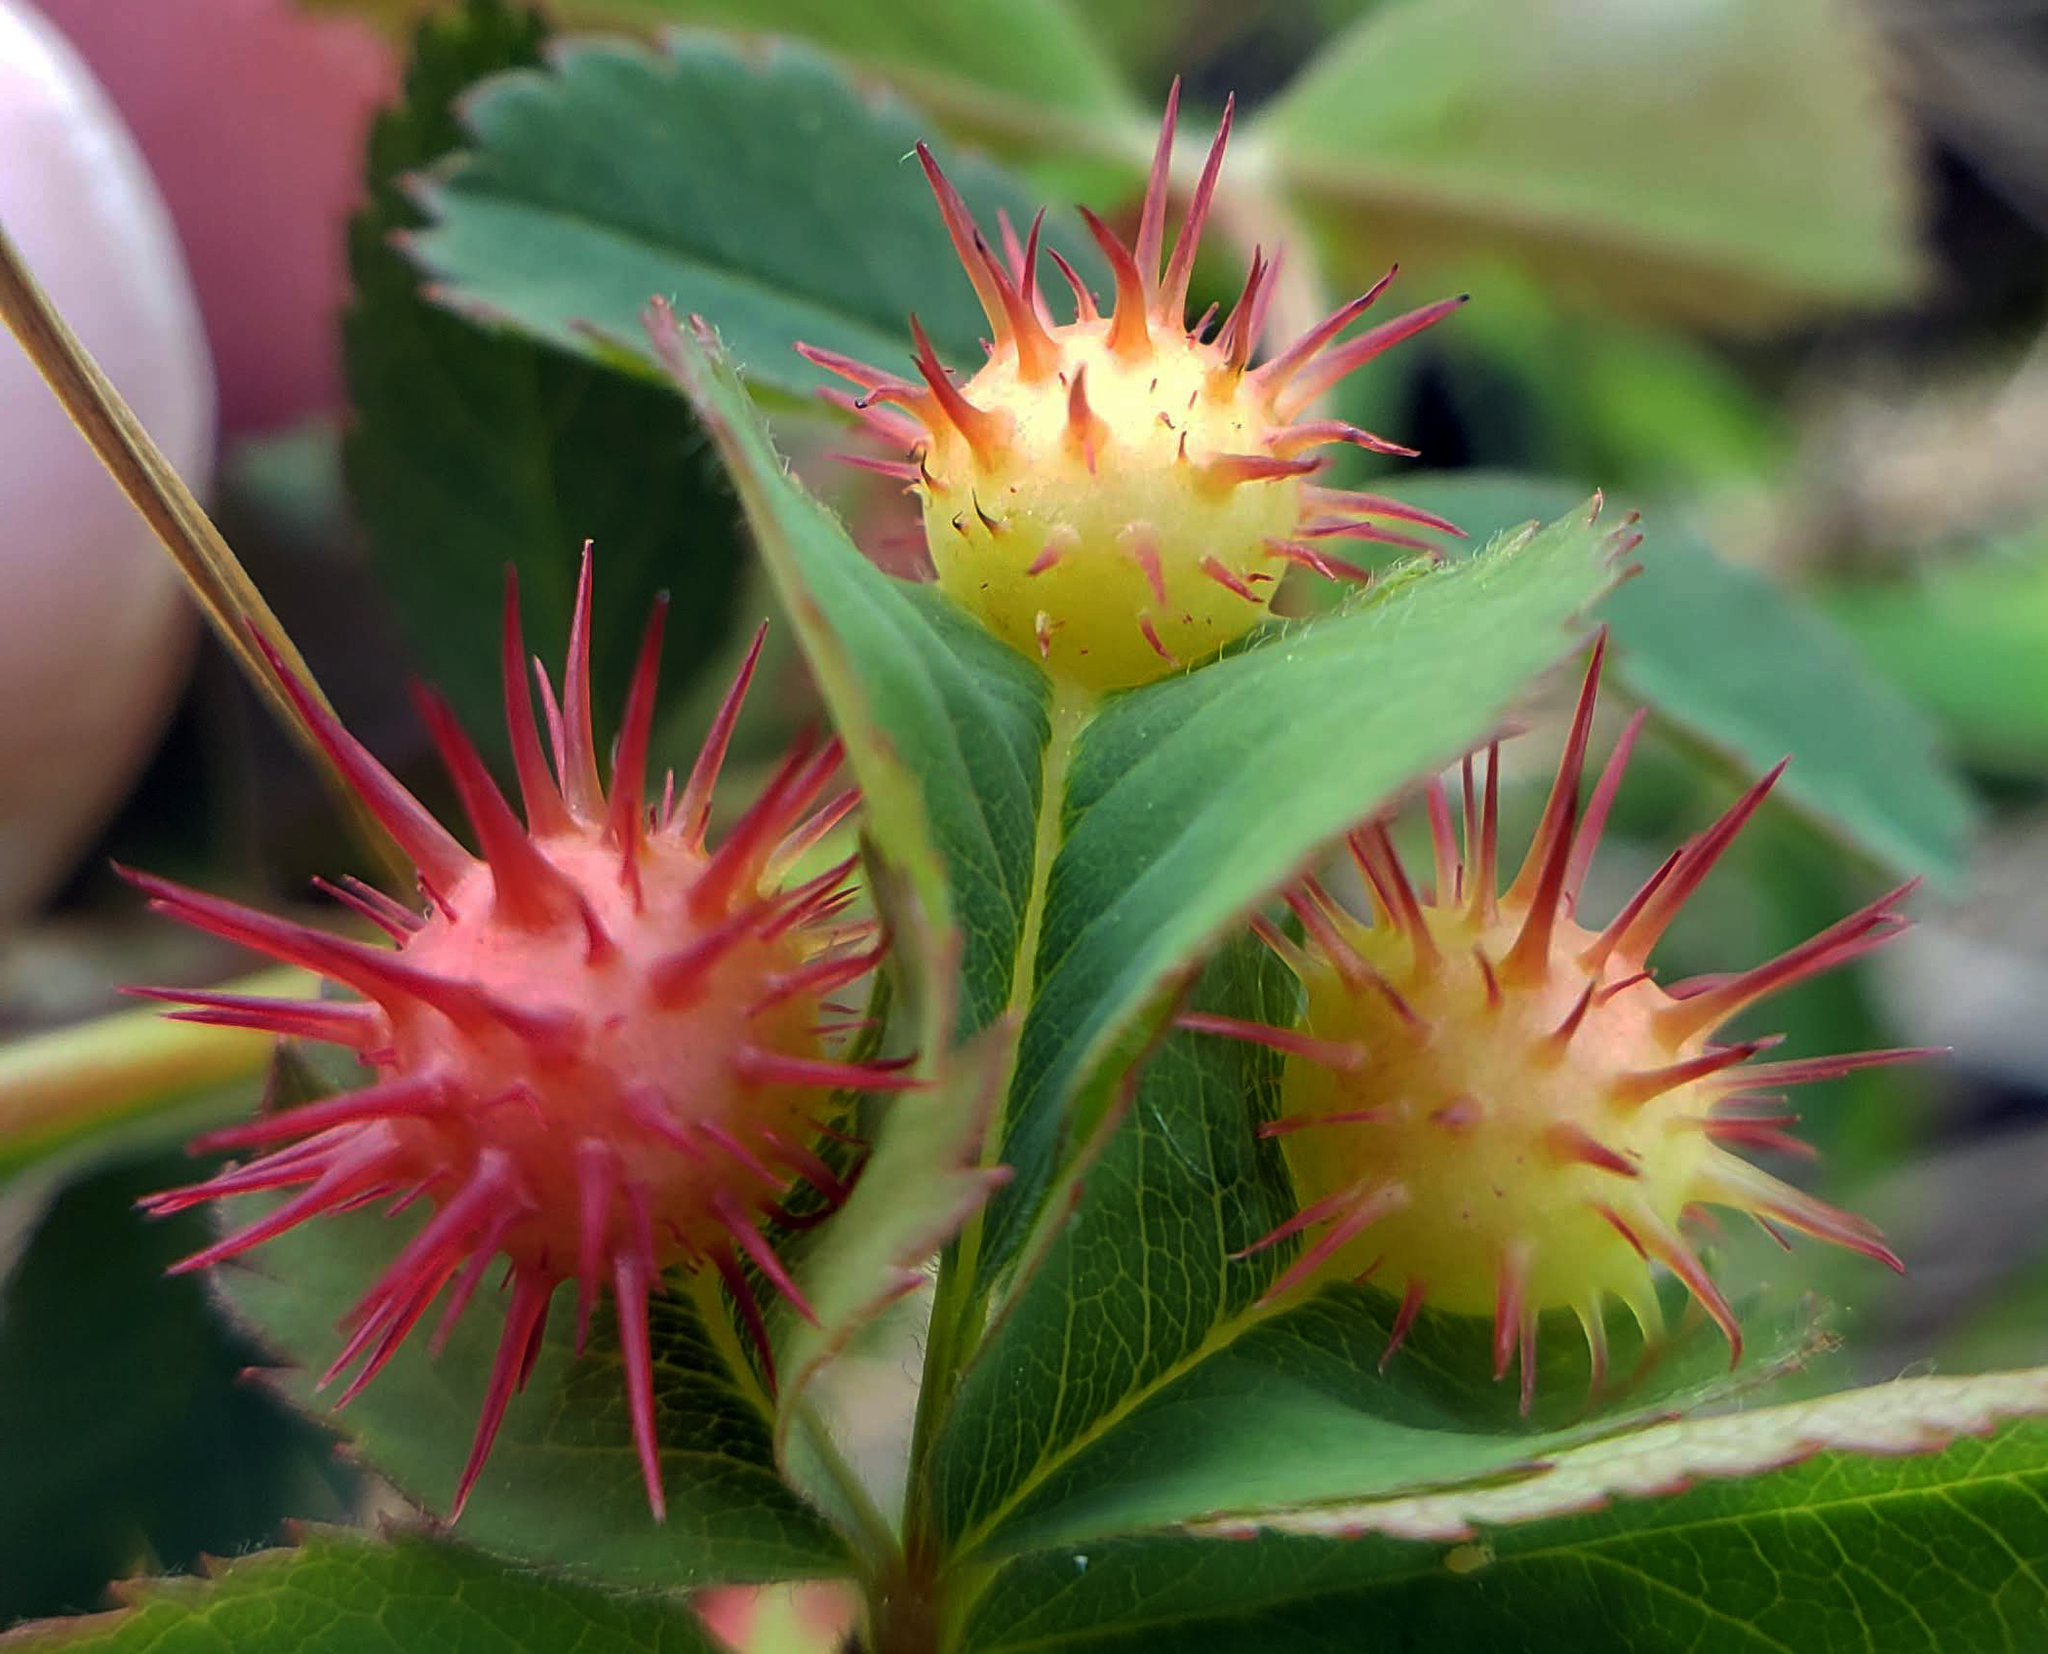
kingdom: Animalia
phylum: Arthropoda
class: Insecta
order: Hymenoptera
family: Cynipidae
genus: Diplolepis
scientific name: Diplolepis bicolor
